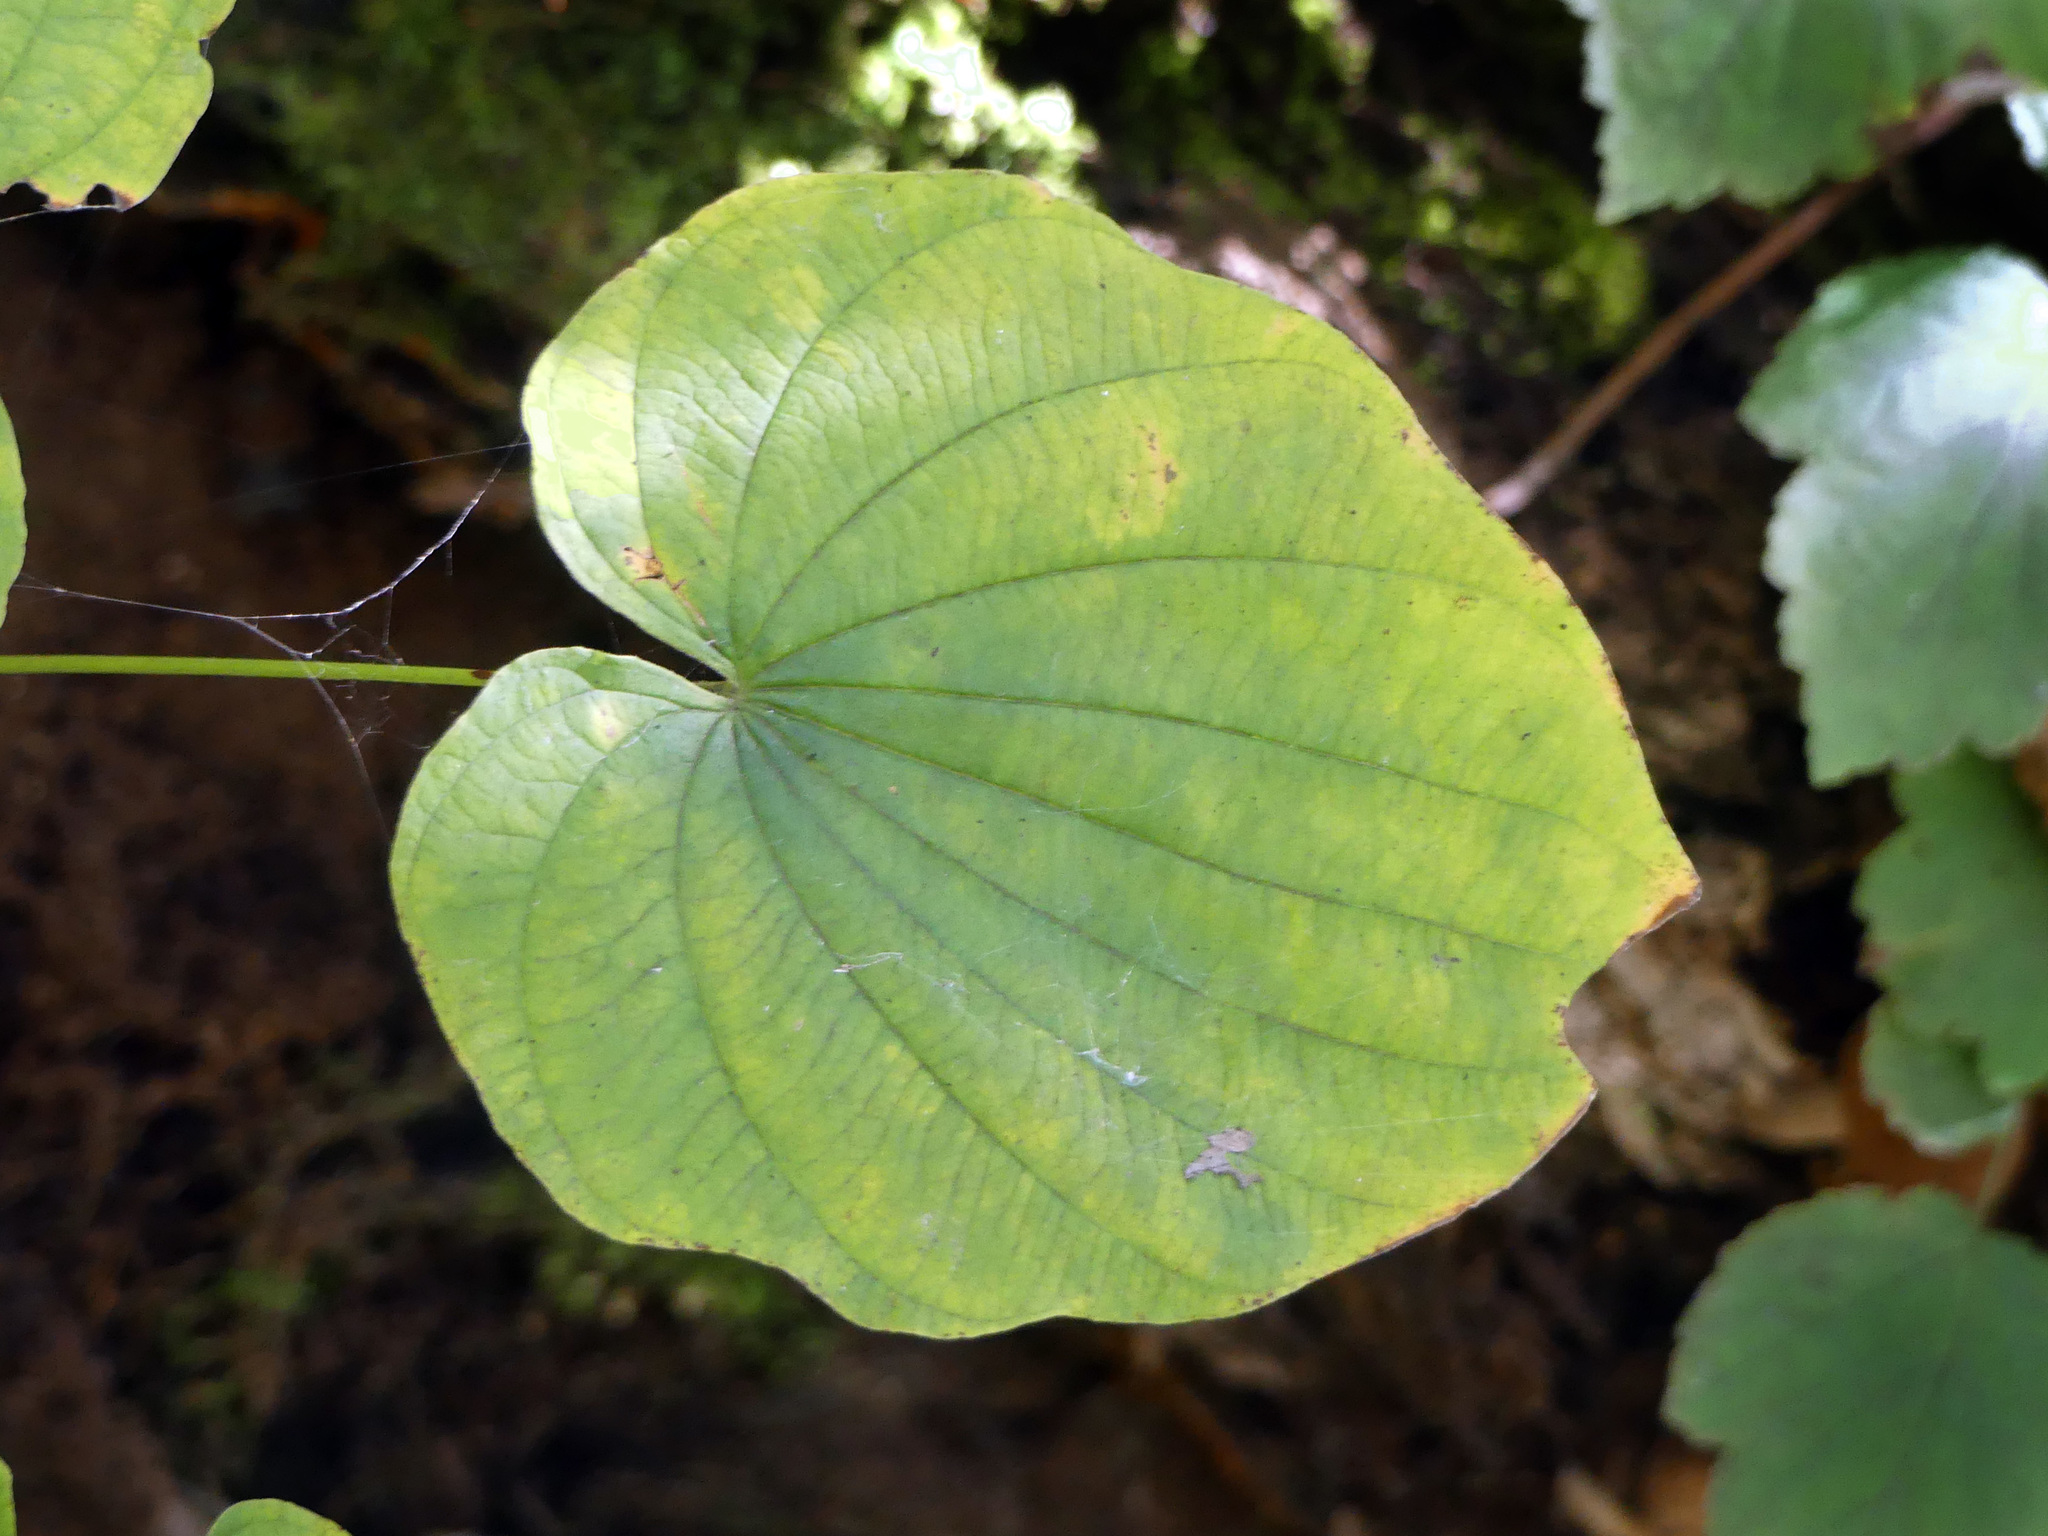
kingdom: Plantae
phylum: Tracheophyta
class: Liliopsida
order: Dioscoreales
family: Dioscoreaceae
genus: Dioscorea
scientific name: Dioscorea villosa
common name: Wild yam
